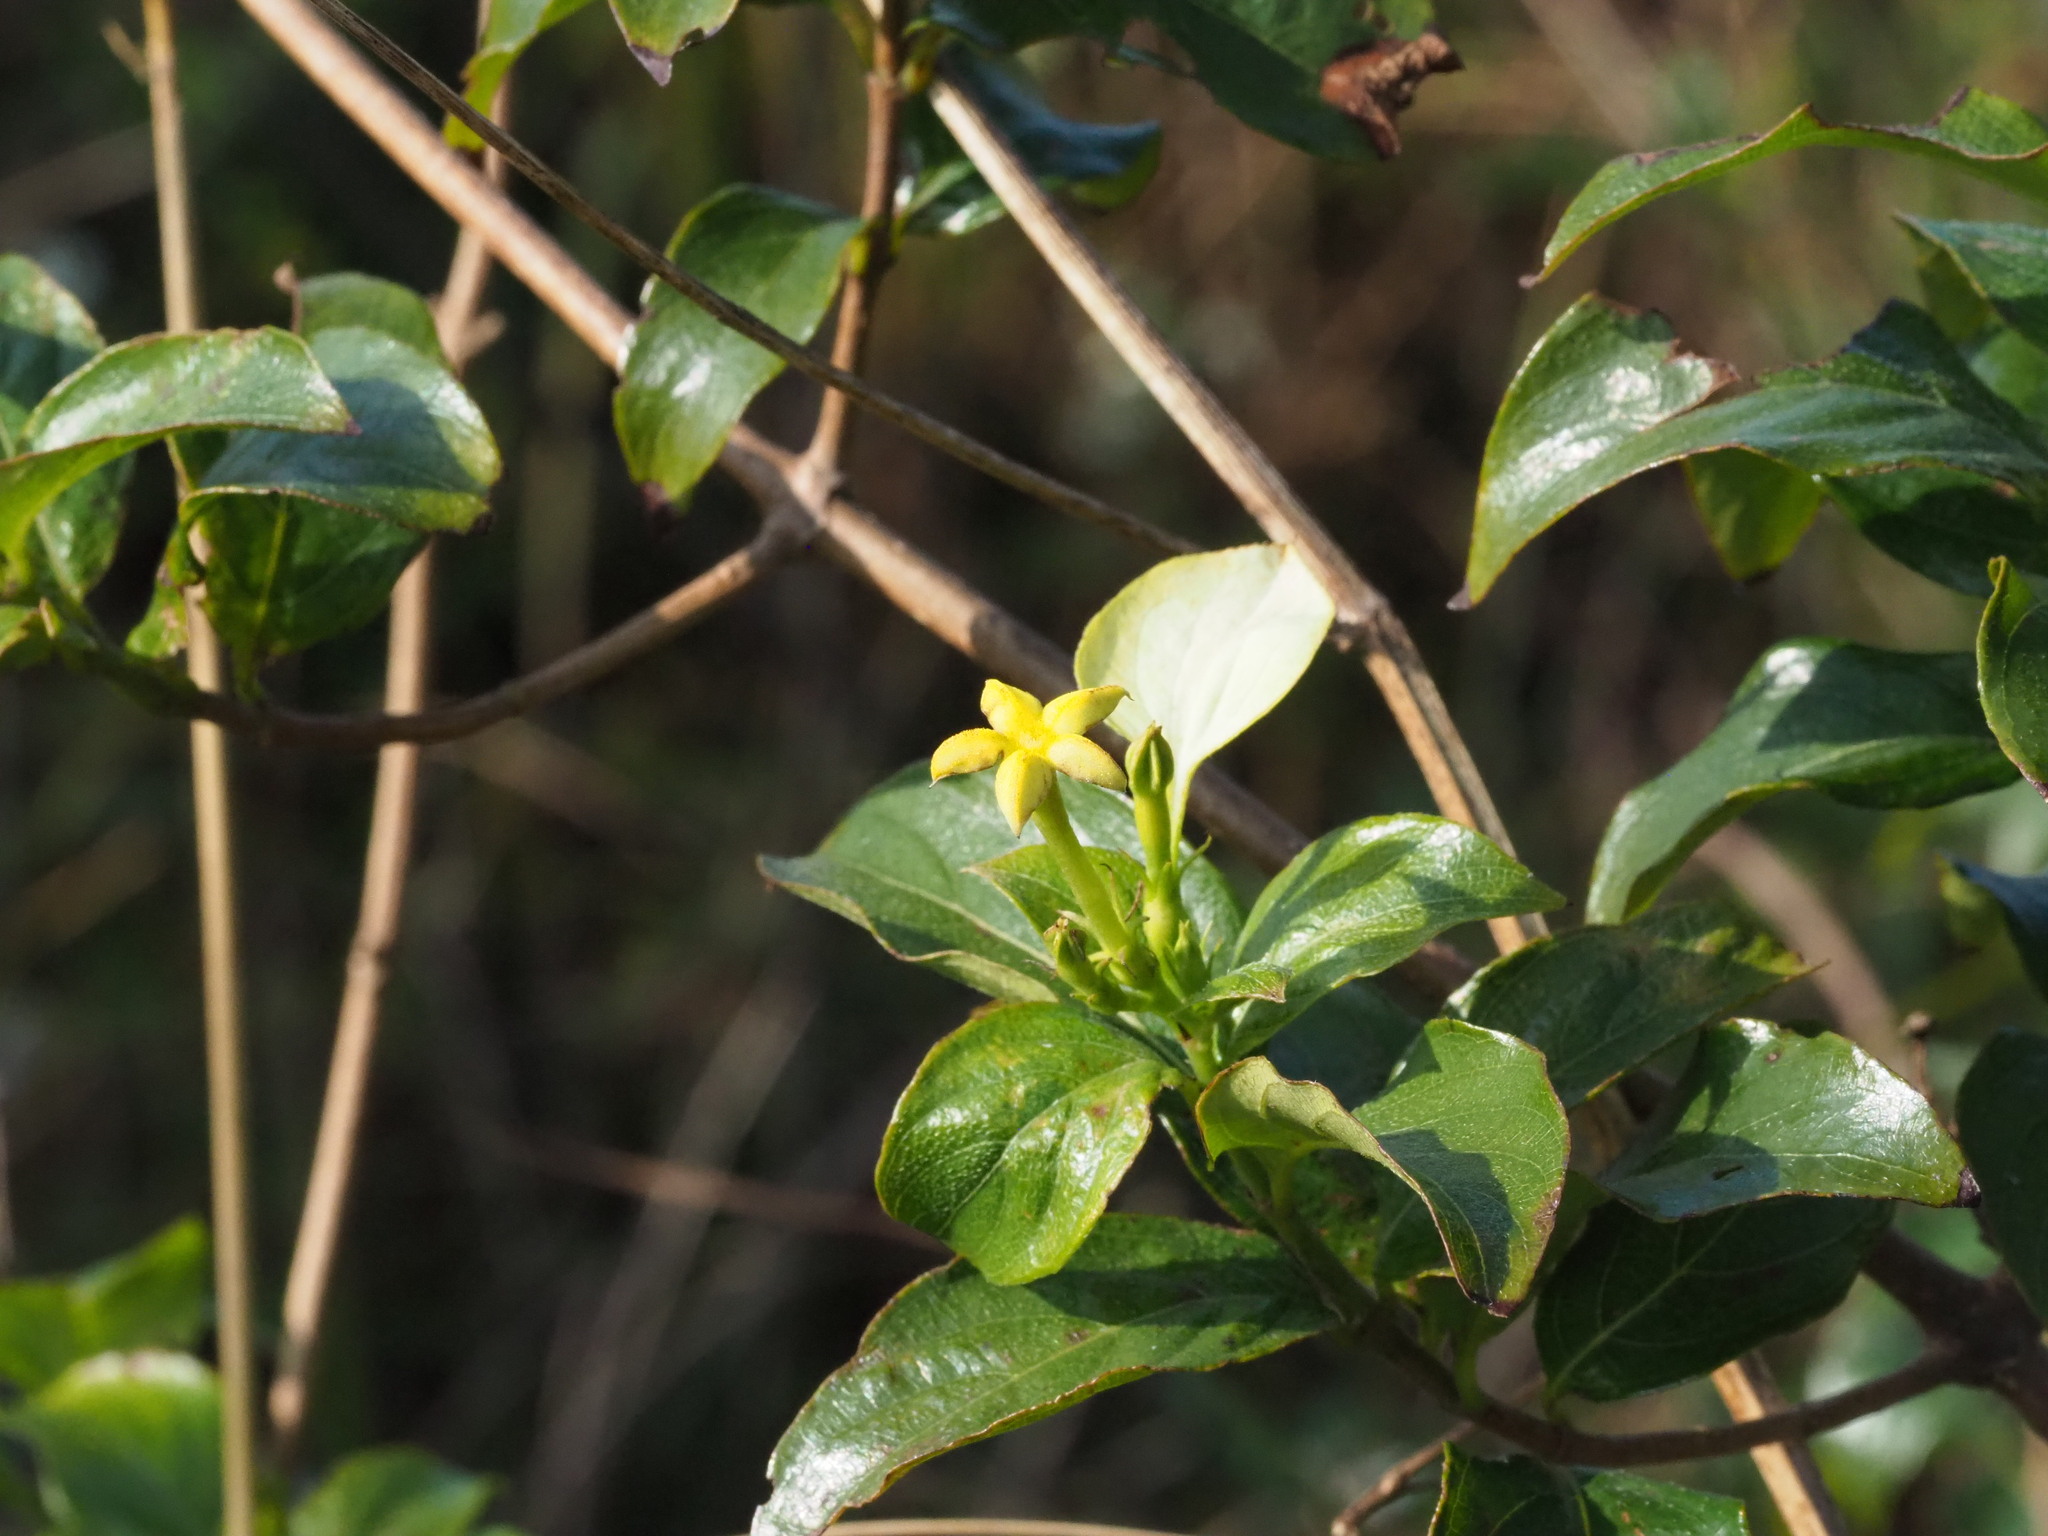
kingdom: Plantae
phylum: Tracheophyta
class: Magnoliopsida
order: Gentianales
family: Rubiaceae
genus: Mussaenda
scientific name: Mussaenda formosana
